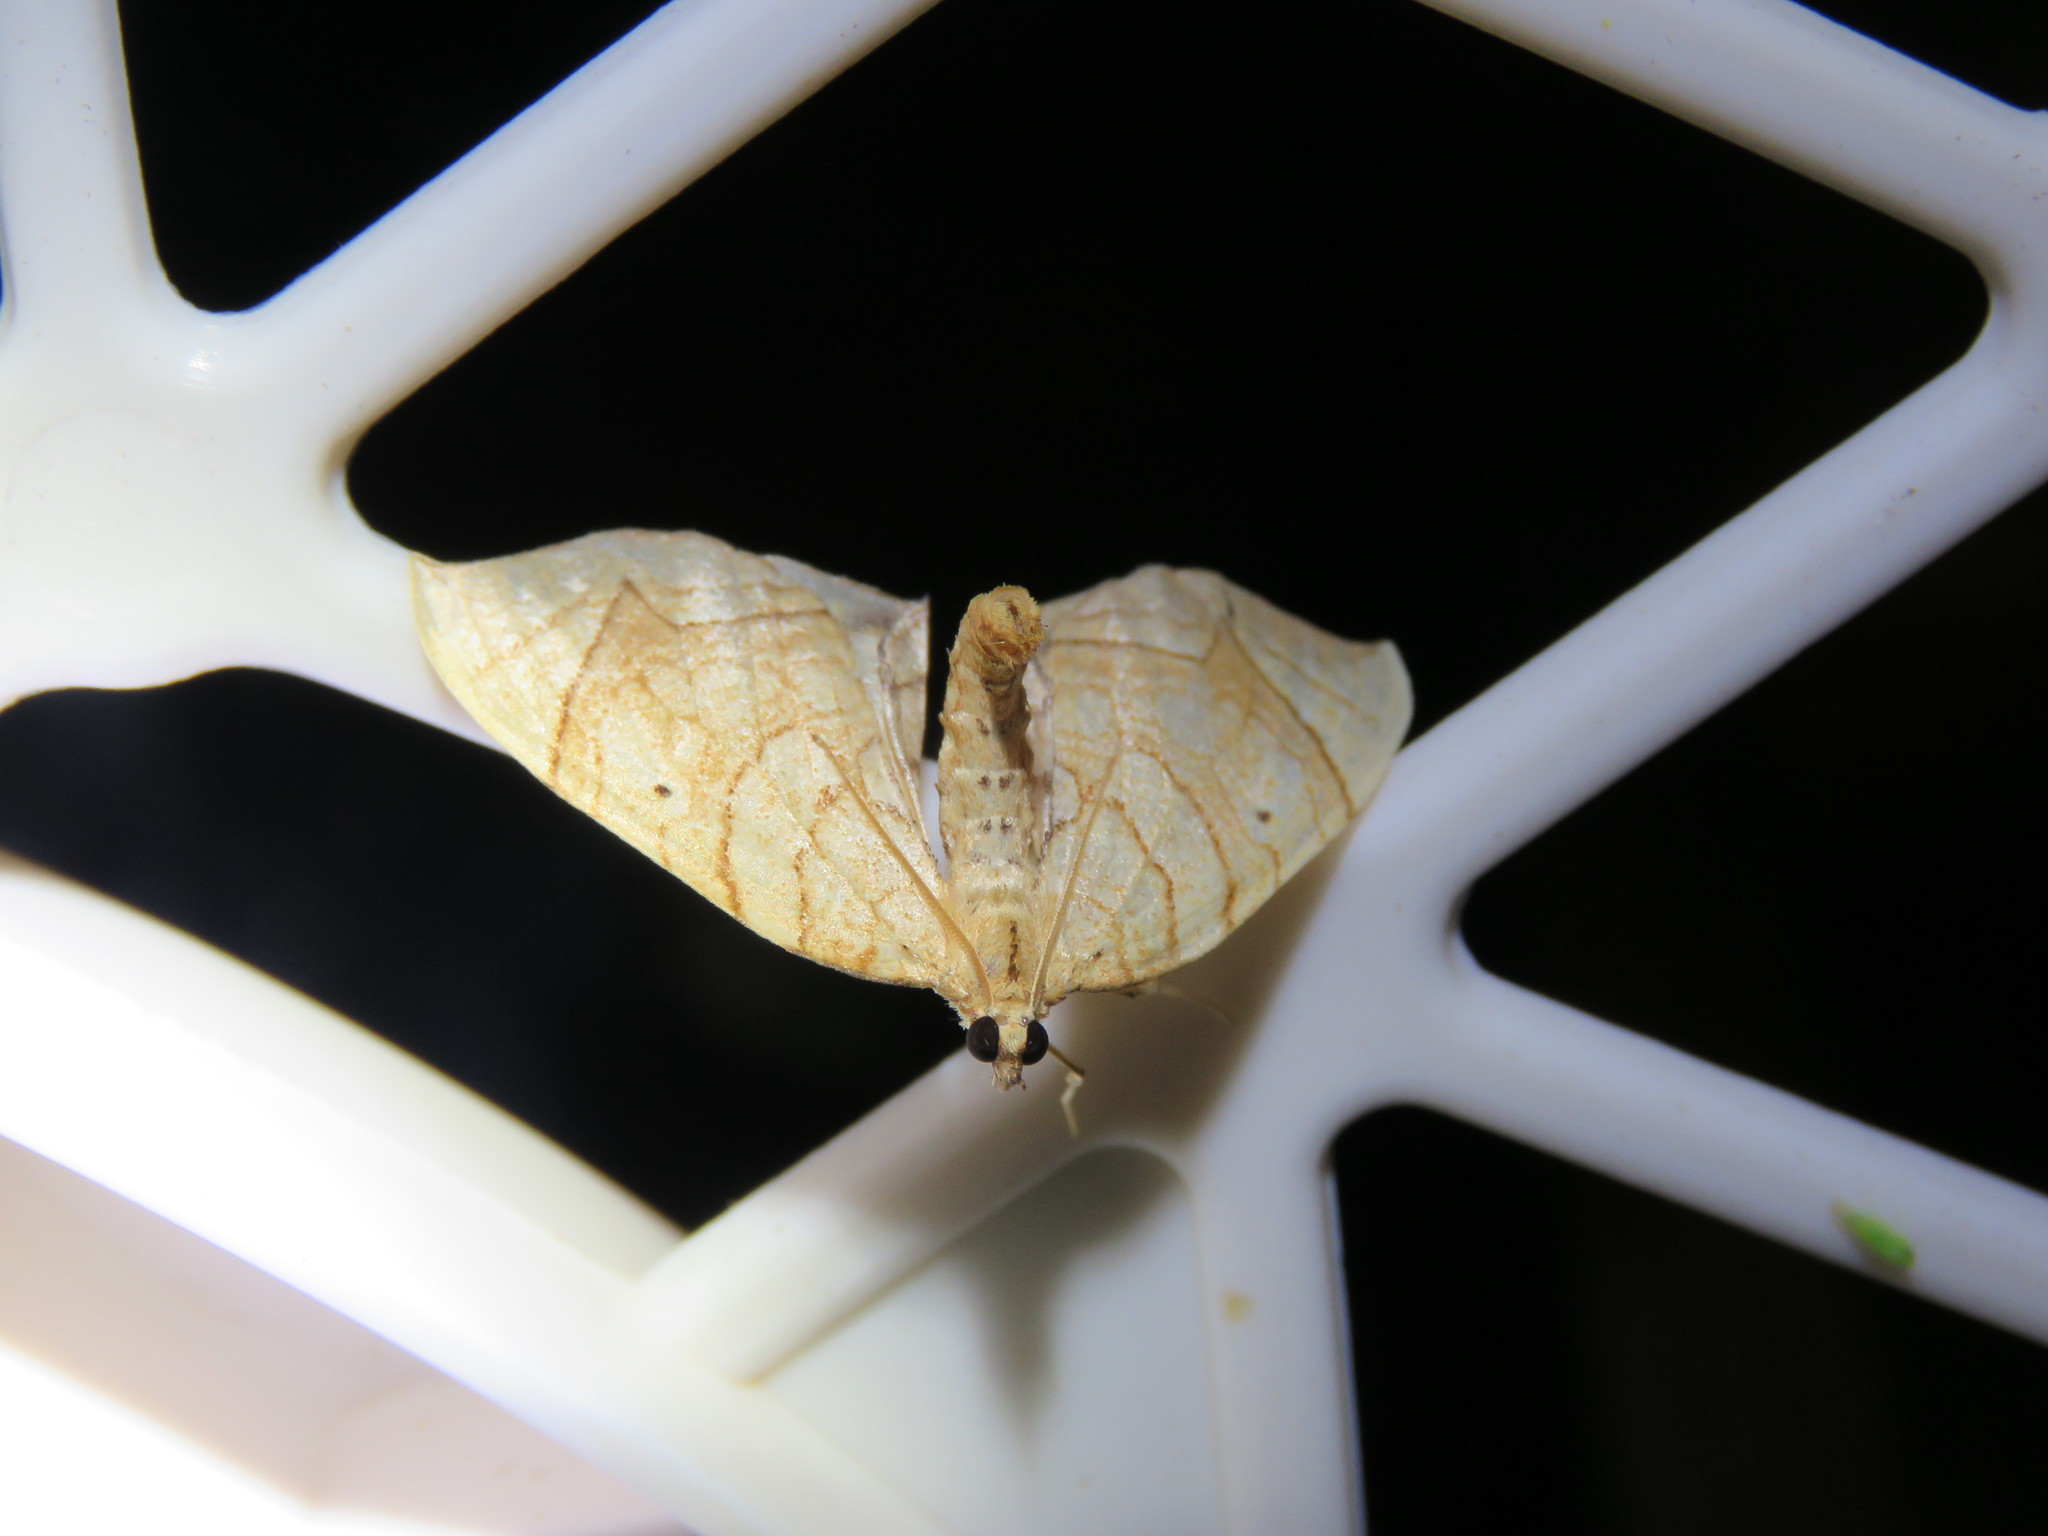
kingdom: Animalia
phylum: Arthropoda
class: Insecta
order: Lepidoptera
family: Geometridae
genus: Eulithis
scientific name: Eulithis
